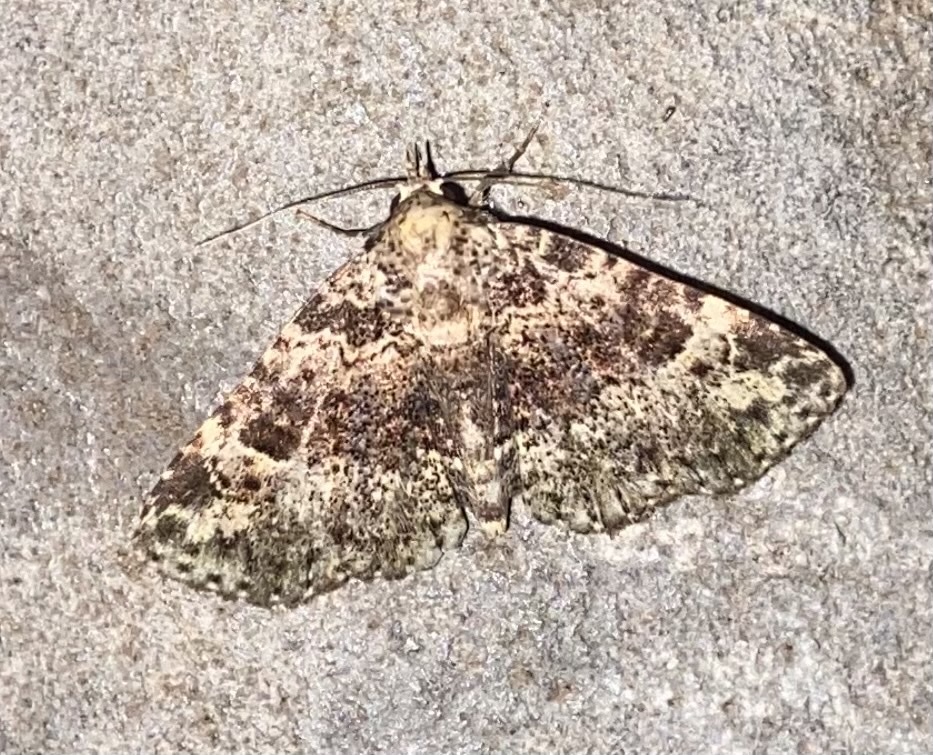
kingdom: Animalia
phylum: Arthropoda
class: Insecta
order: Lepidoptera
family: Erebidae
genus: Metalectra
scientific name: Metalectra discalis
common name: Common fungus moth
